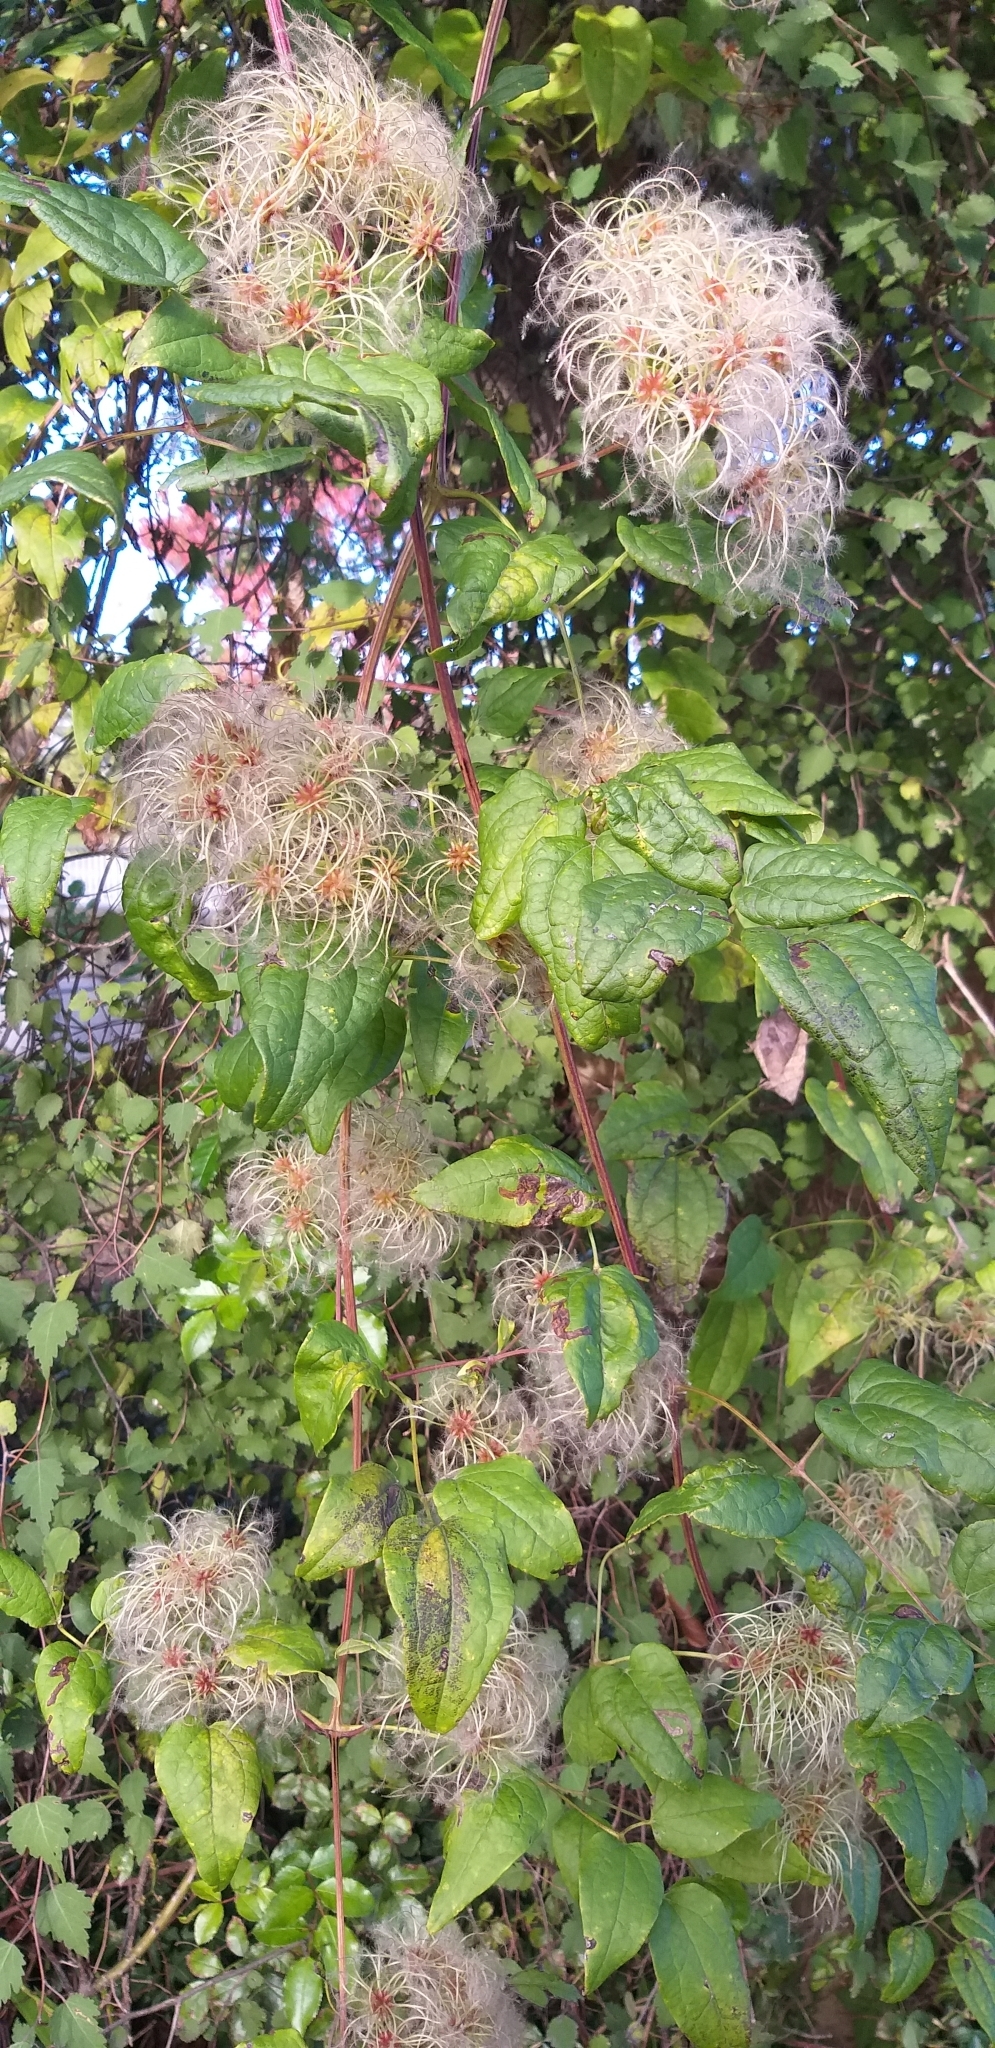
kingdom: Plantae
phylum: Tracheophyta
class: Magnoliopsida
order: Ranunculales
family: Ranunculaceae
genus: Clematis
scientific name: Clematis vitalba
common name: Evergreen clematis
